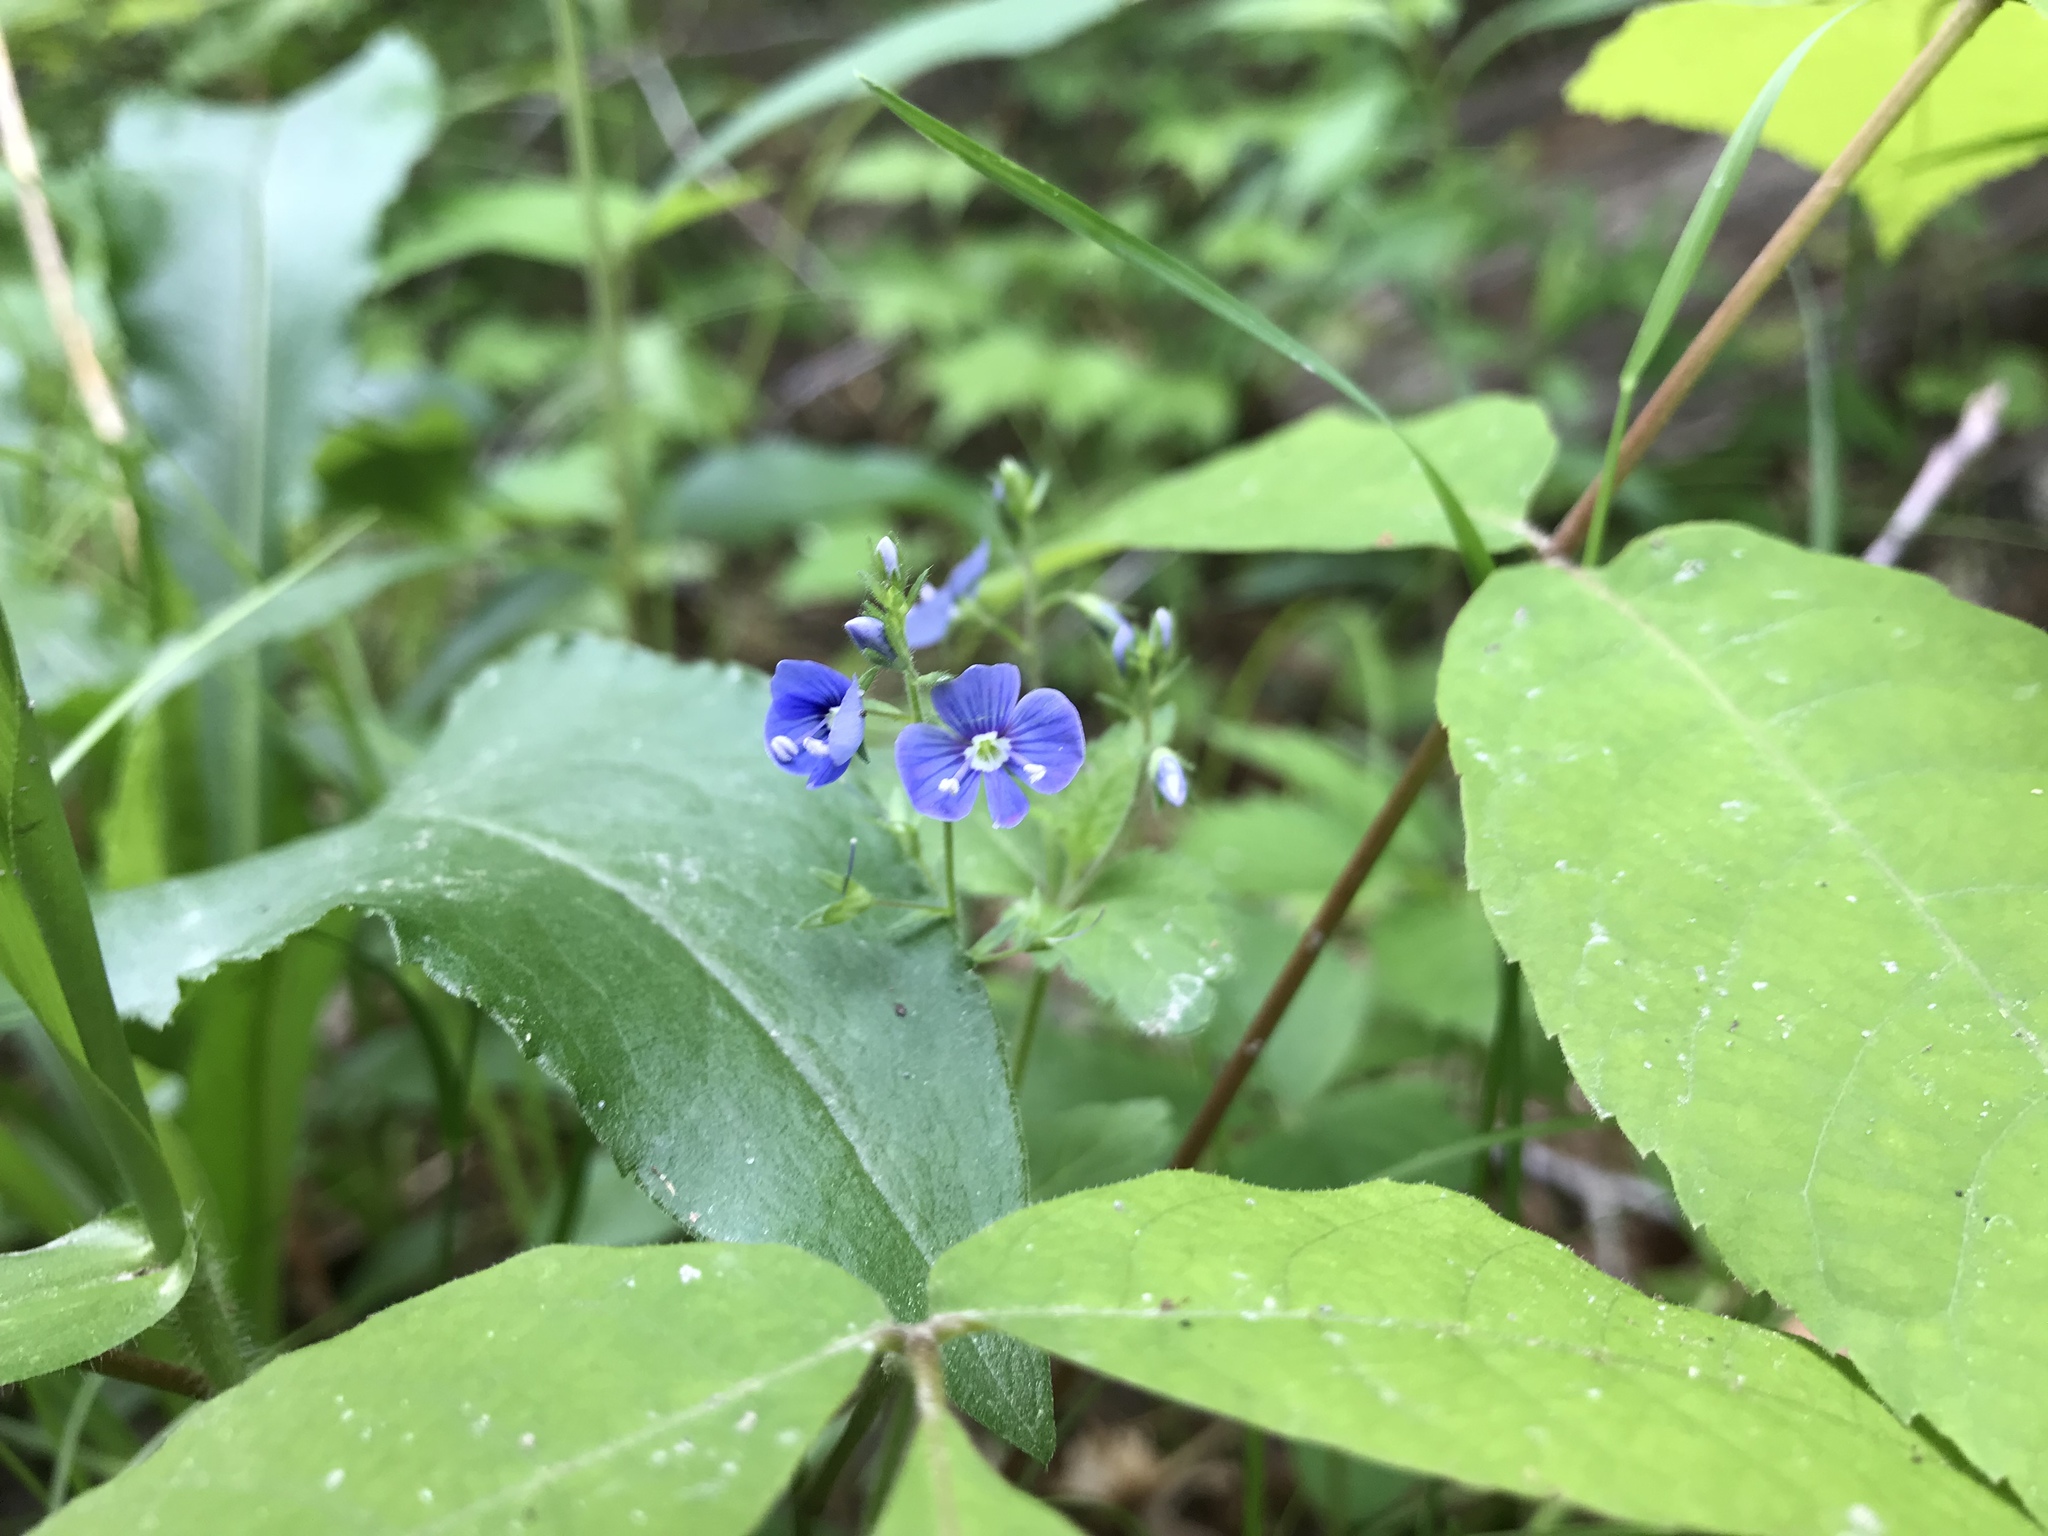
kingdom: Plantae
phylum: Tracheophyta
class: Magnoliopsida
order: Lamiales
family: Plantaginaceae
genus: Veronica
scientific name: Veronica chamaedrys
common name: Germander speedwell
